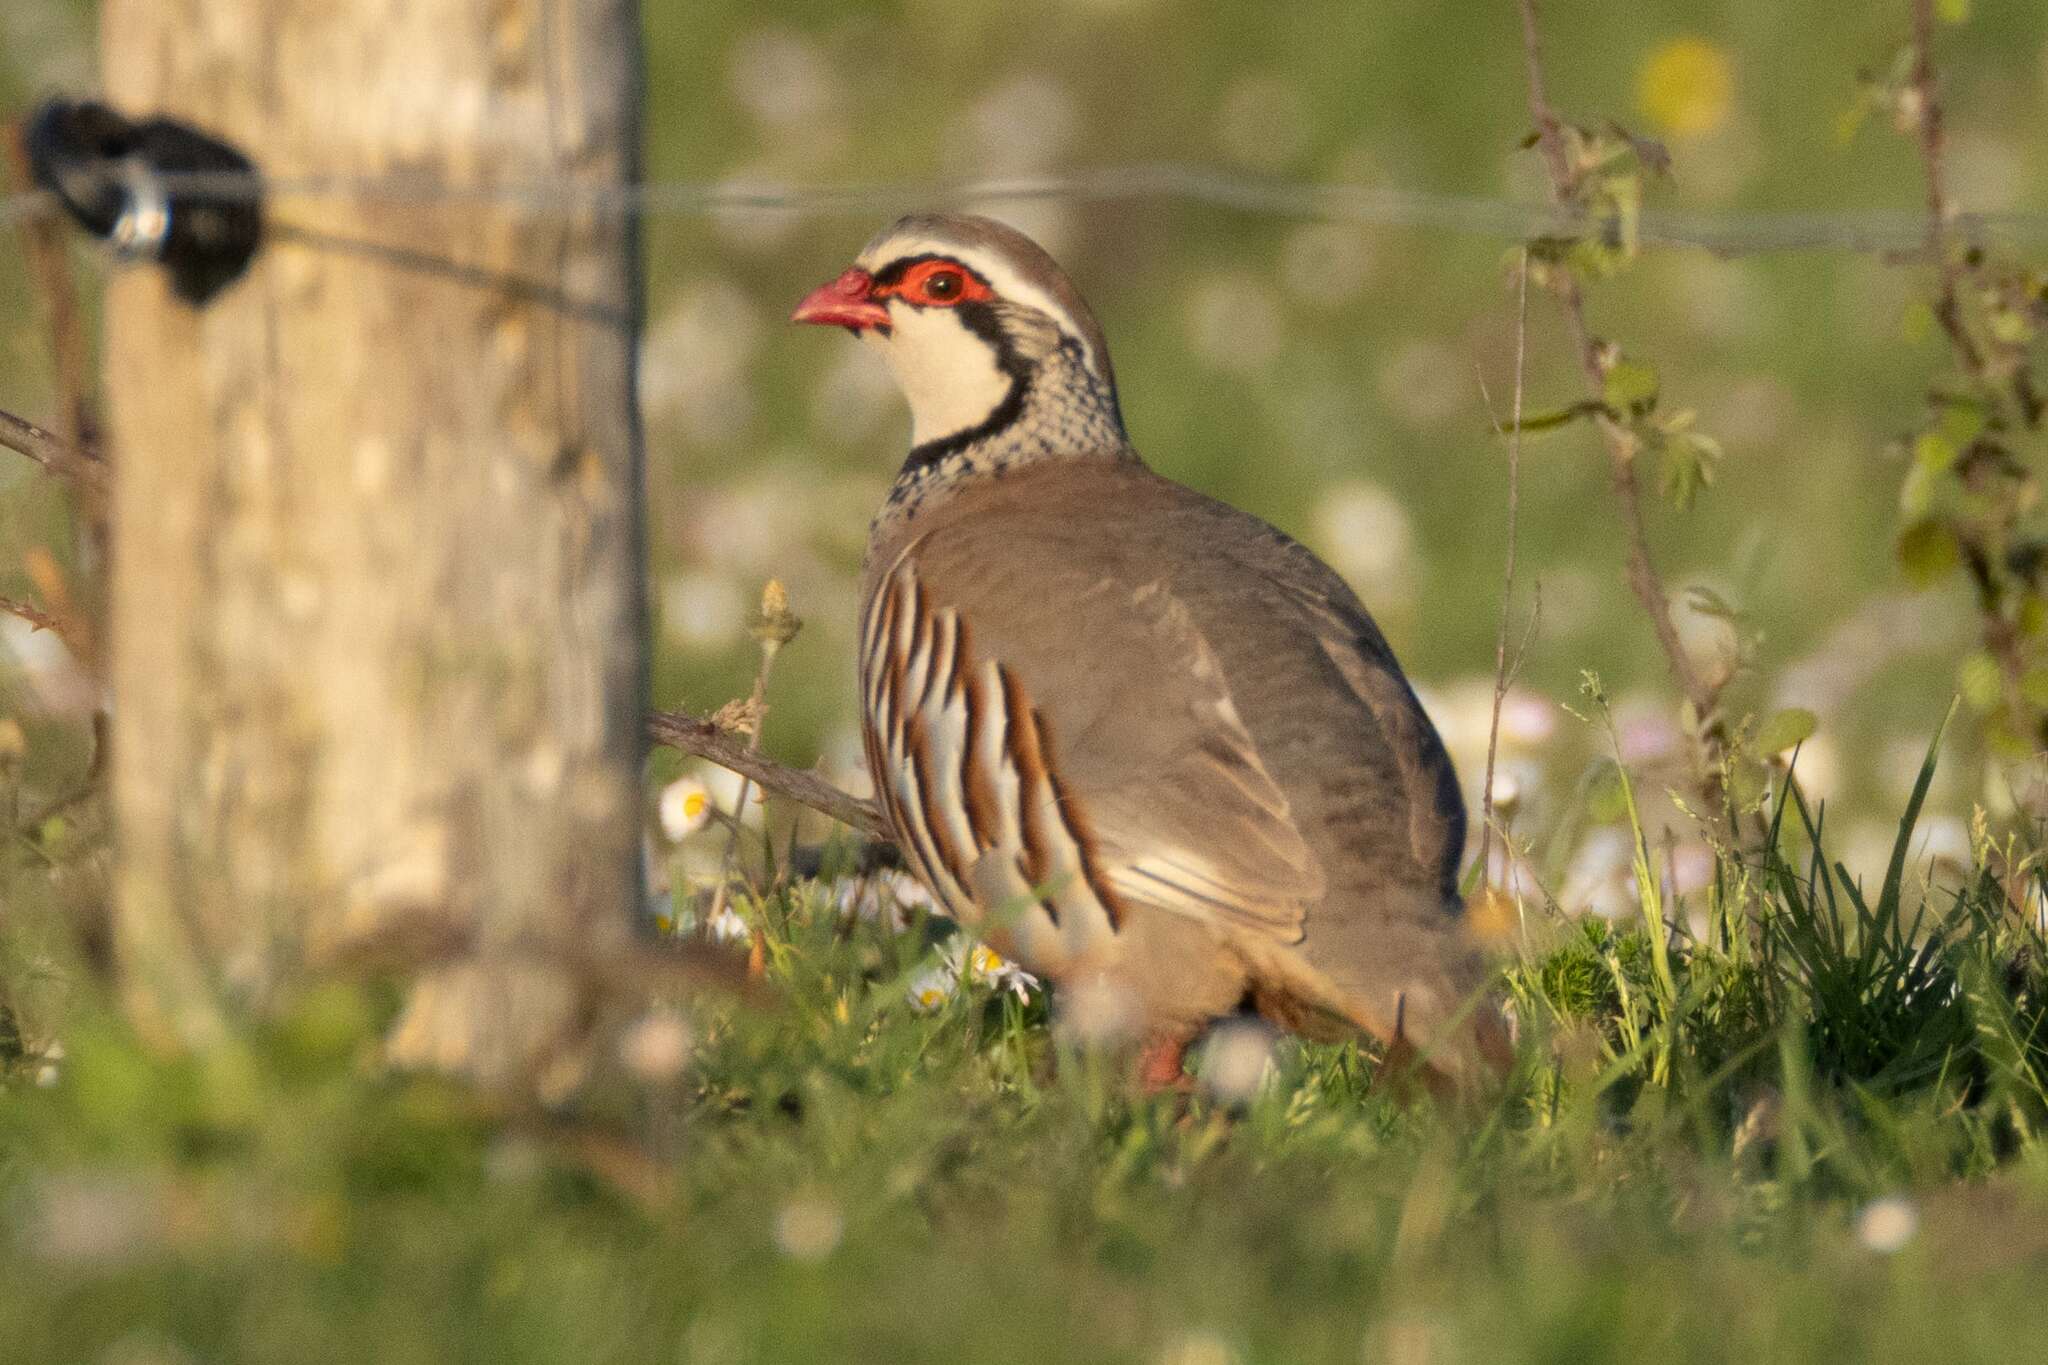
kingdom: Animalia
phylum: Chordata
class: Aves
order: Galliformes
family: Phasianidae
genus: Alectoris
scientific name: Alectoris rufa
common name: Red-legged partridge
